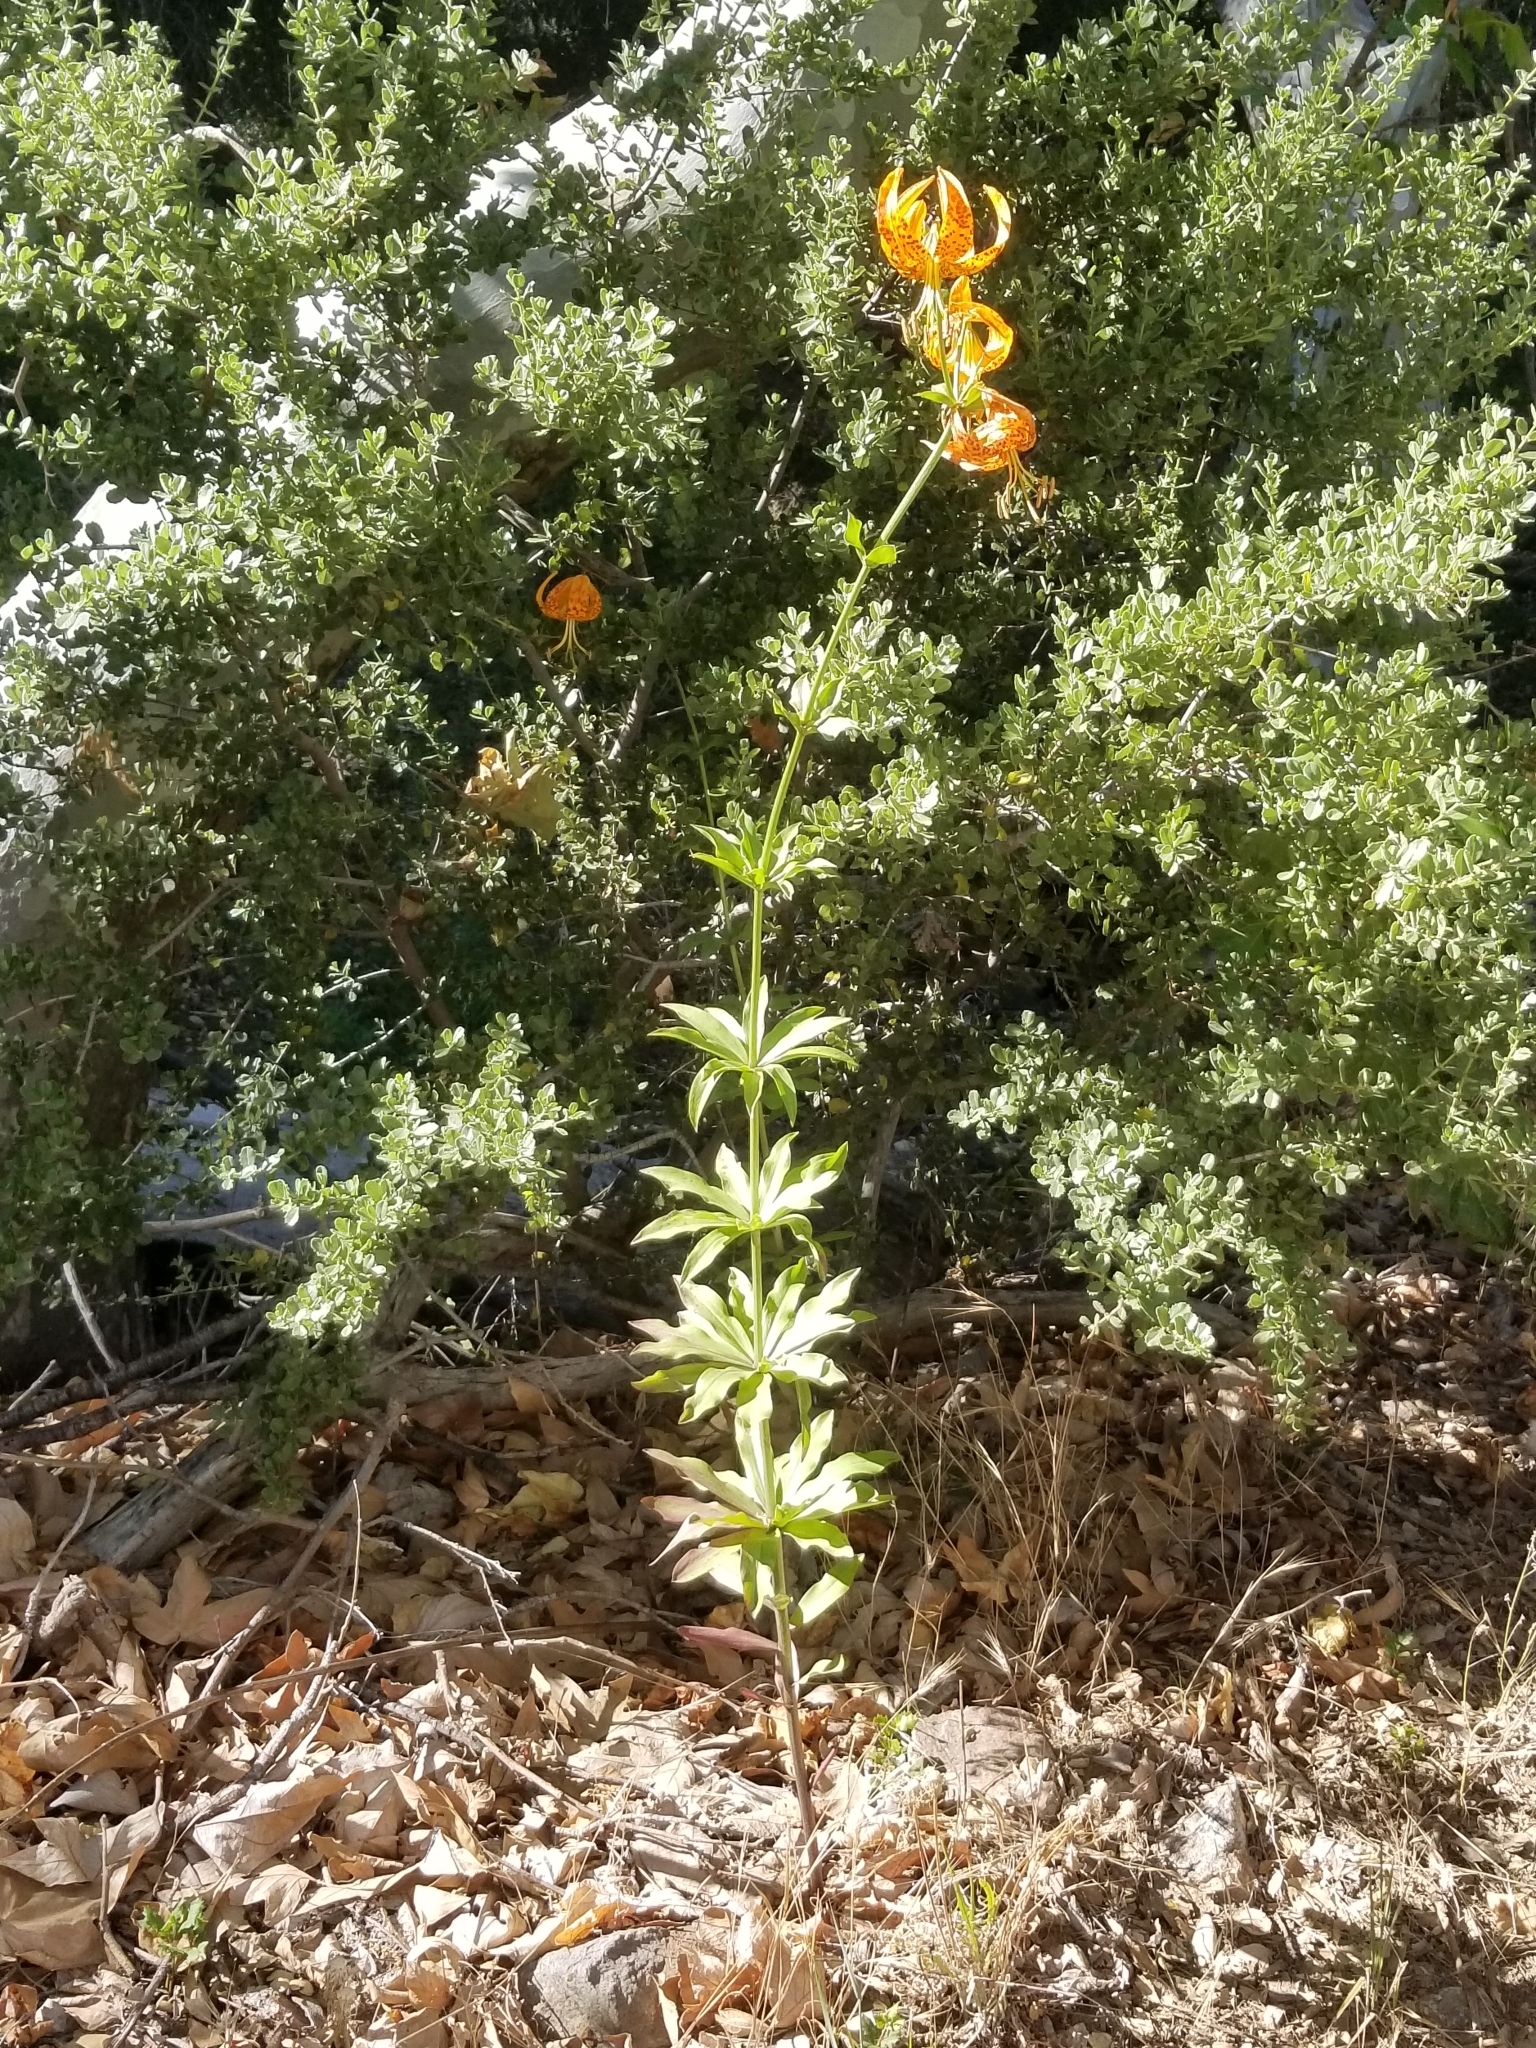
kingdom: Plantae
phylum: Tracheophyta
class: Liliopsida
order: Liliales
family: Liliaceae
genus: Lilium
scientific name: Lilium humboldtii
